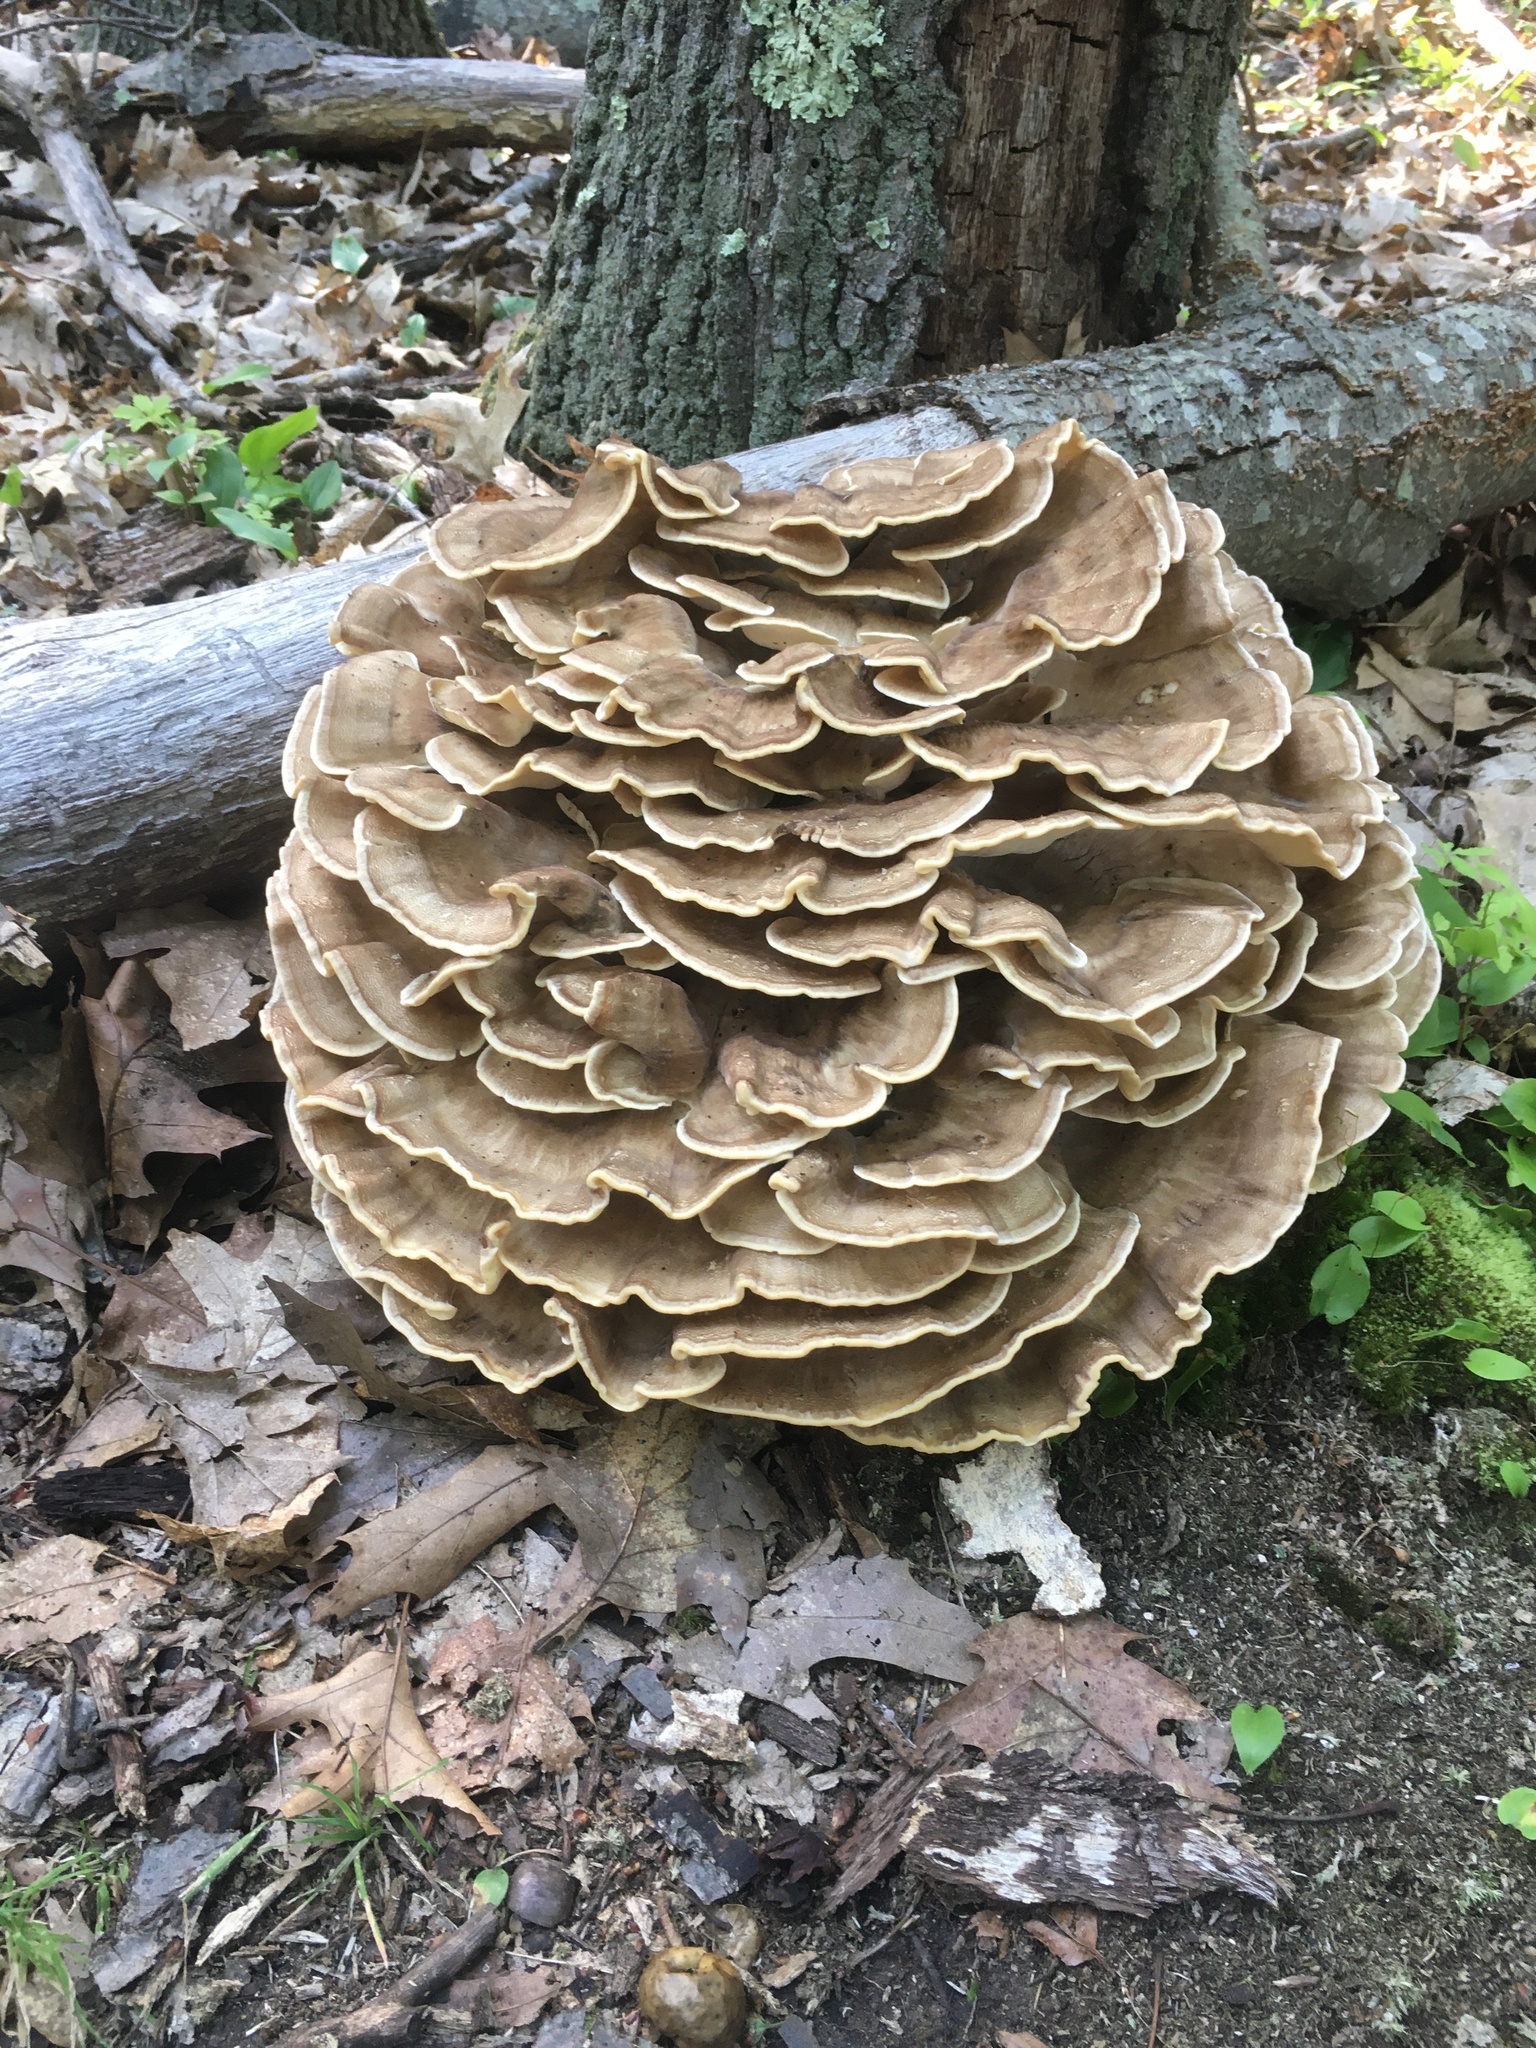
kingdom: Fungi
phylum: Basidiomycota
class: Agaricomycetes
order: Polyporales
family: Meripilaceae
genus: Meripilus
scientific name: Meripilus sumstinei
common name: Black-staining polypore
